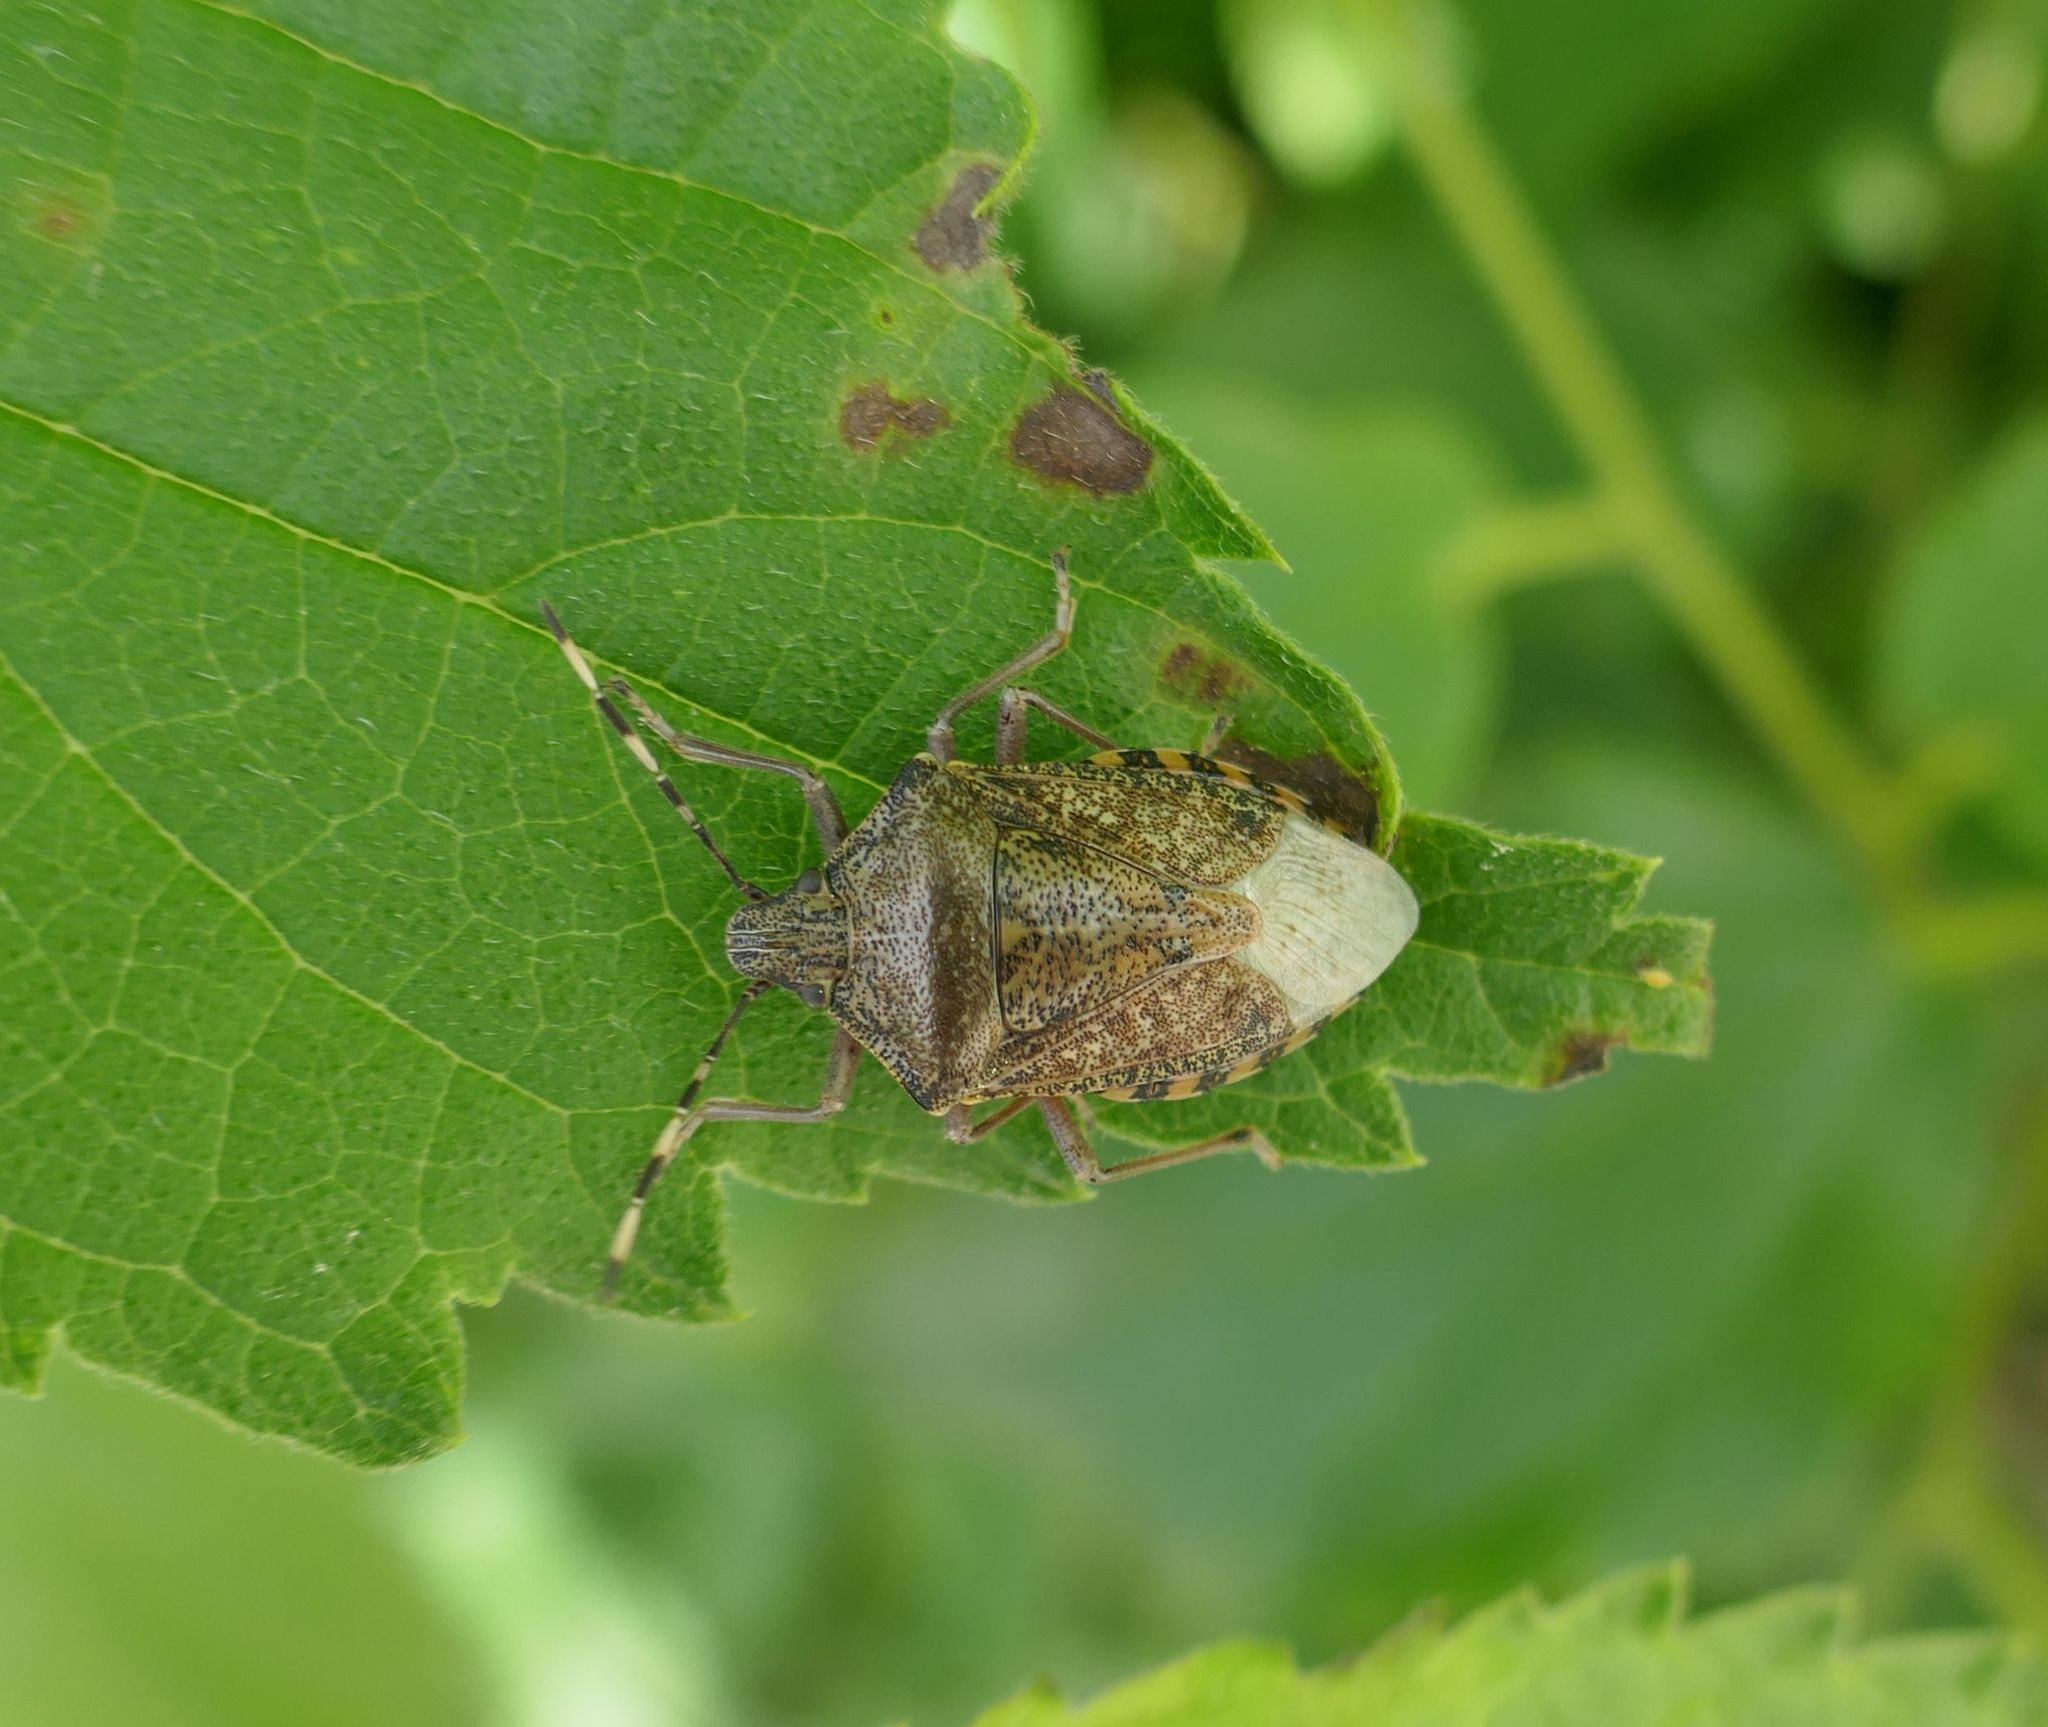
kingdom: Animalia
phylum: Arthropoda
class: Insecta
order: Hemiptera
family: Pentatomidae
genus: Rhaphigaster
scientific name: Rhaphigaster nebulosa
